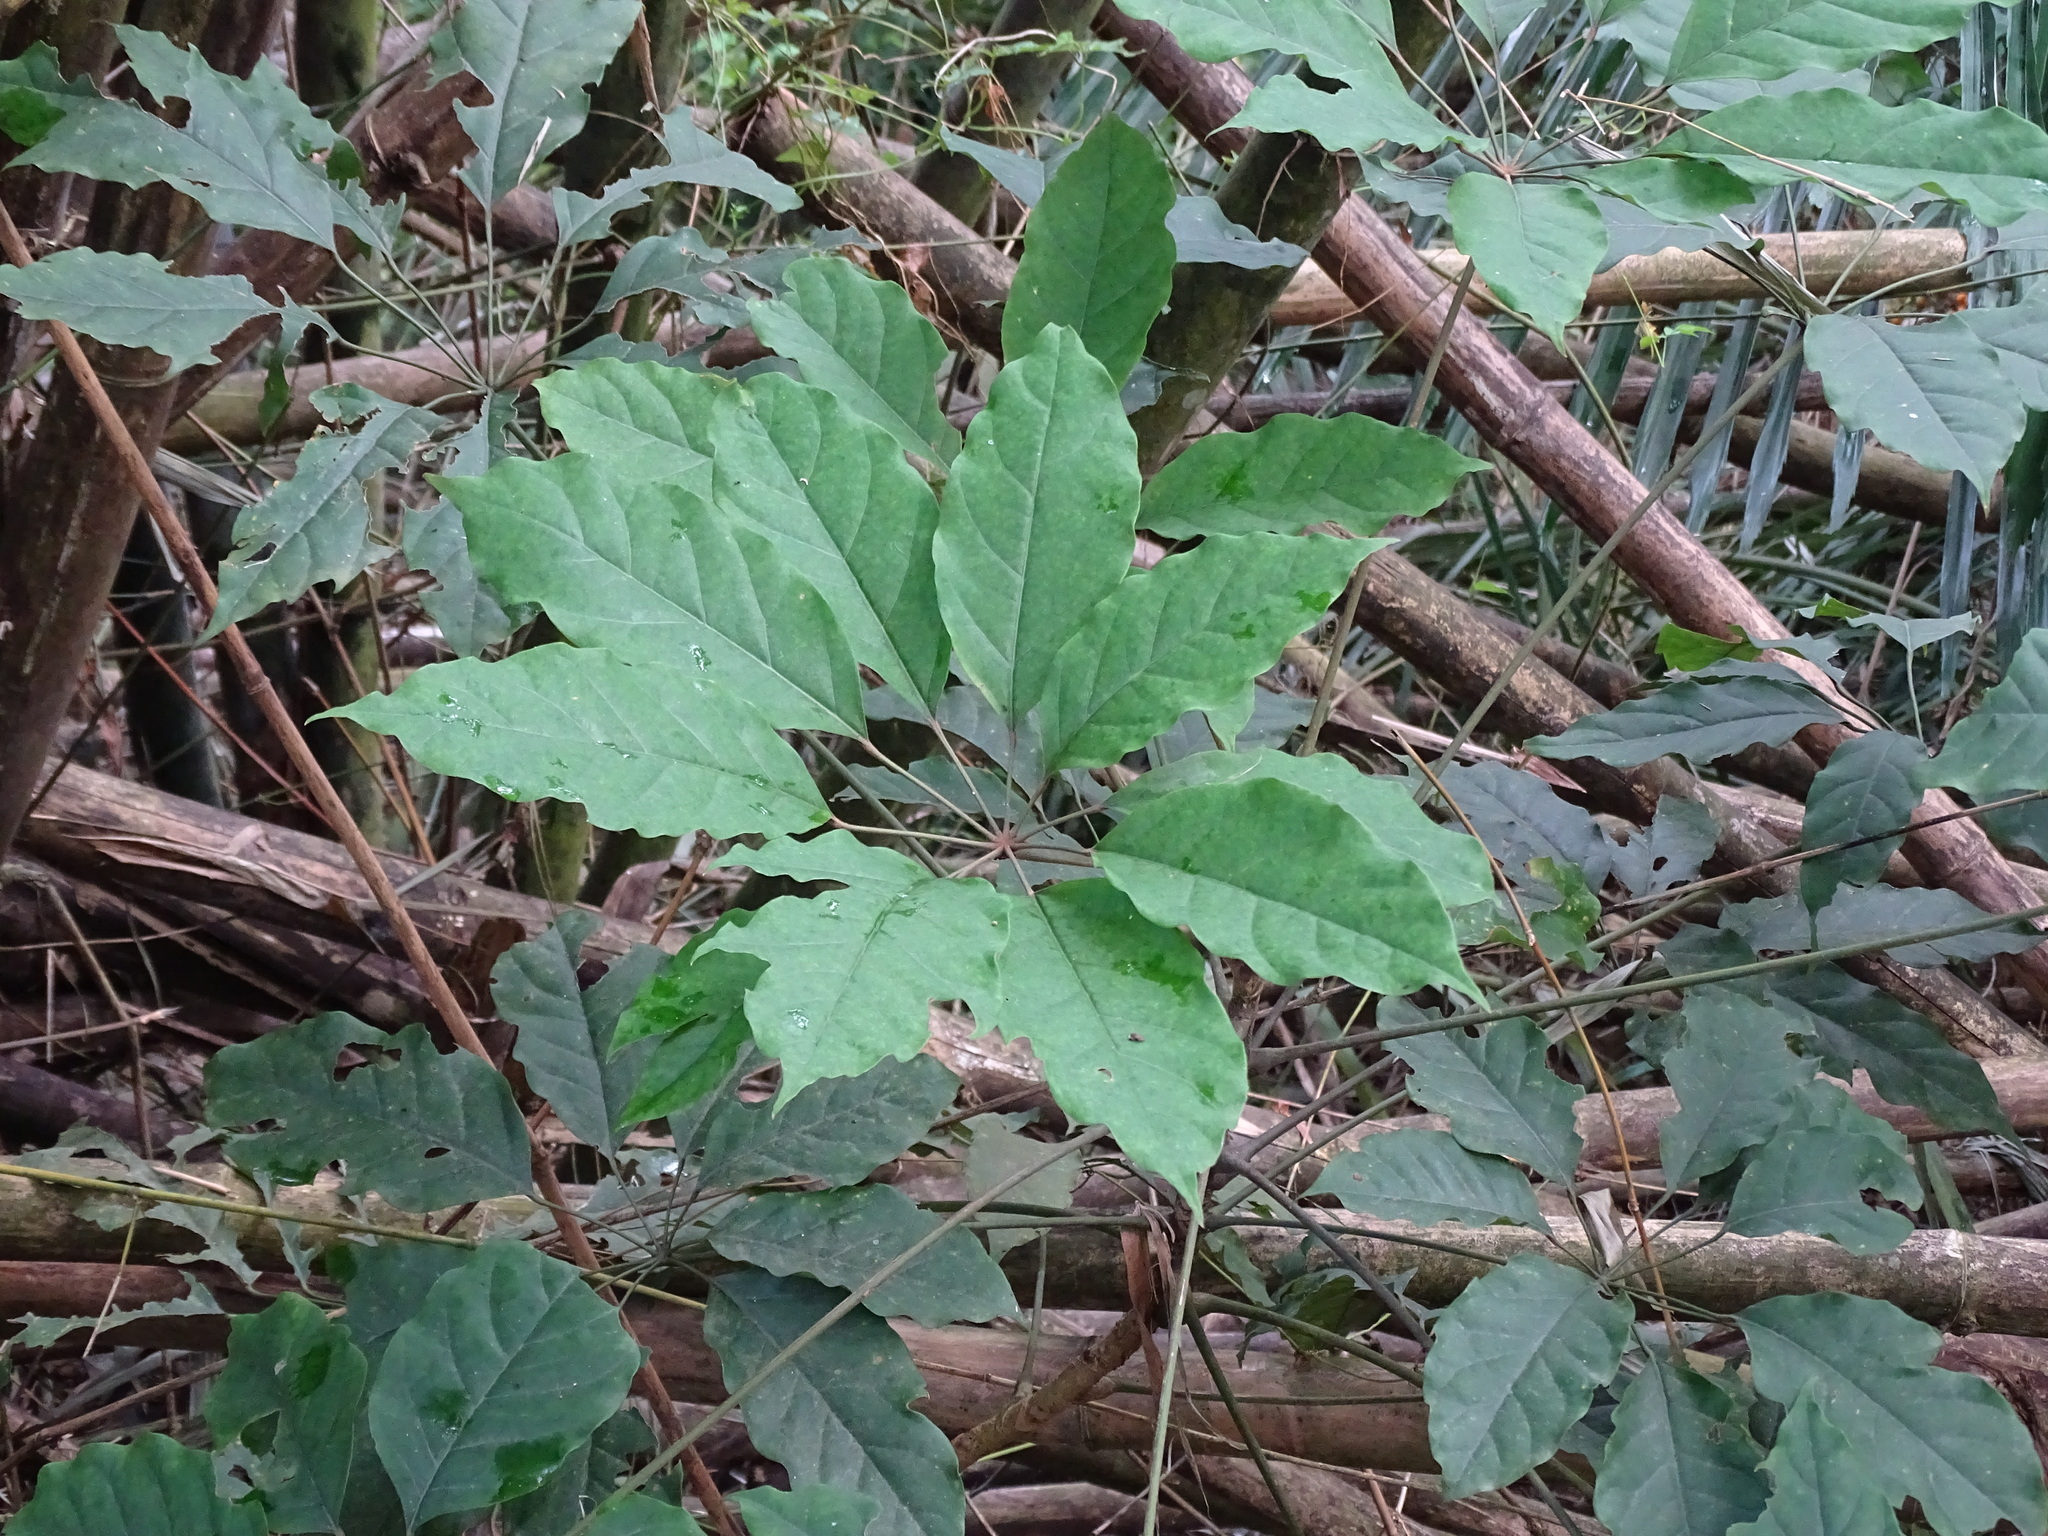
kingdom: Plantae
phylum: Tracheophyta
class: Magnoliopsida
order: Apiales
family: Araliaceae
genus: Heptapleurum
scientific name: Heptapleurum heptaphyllum
